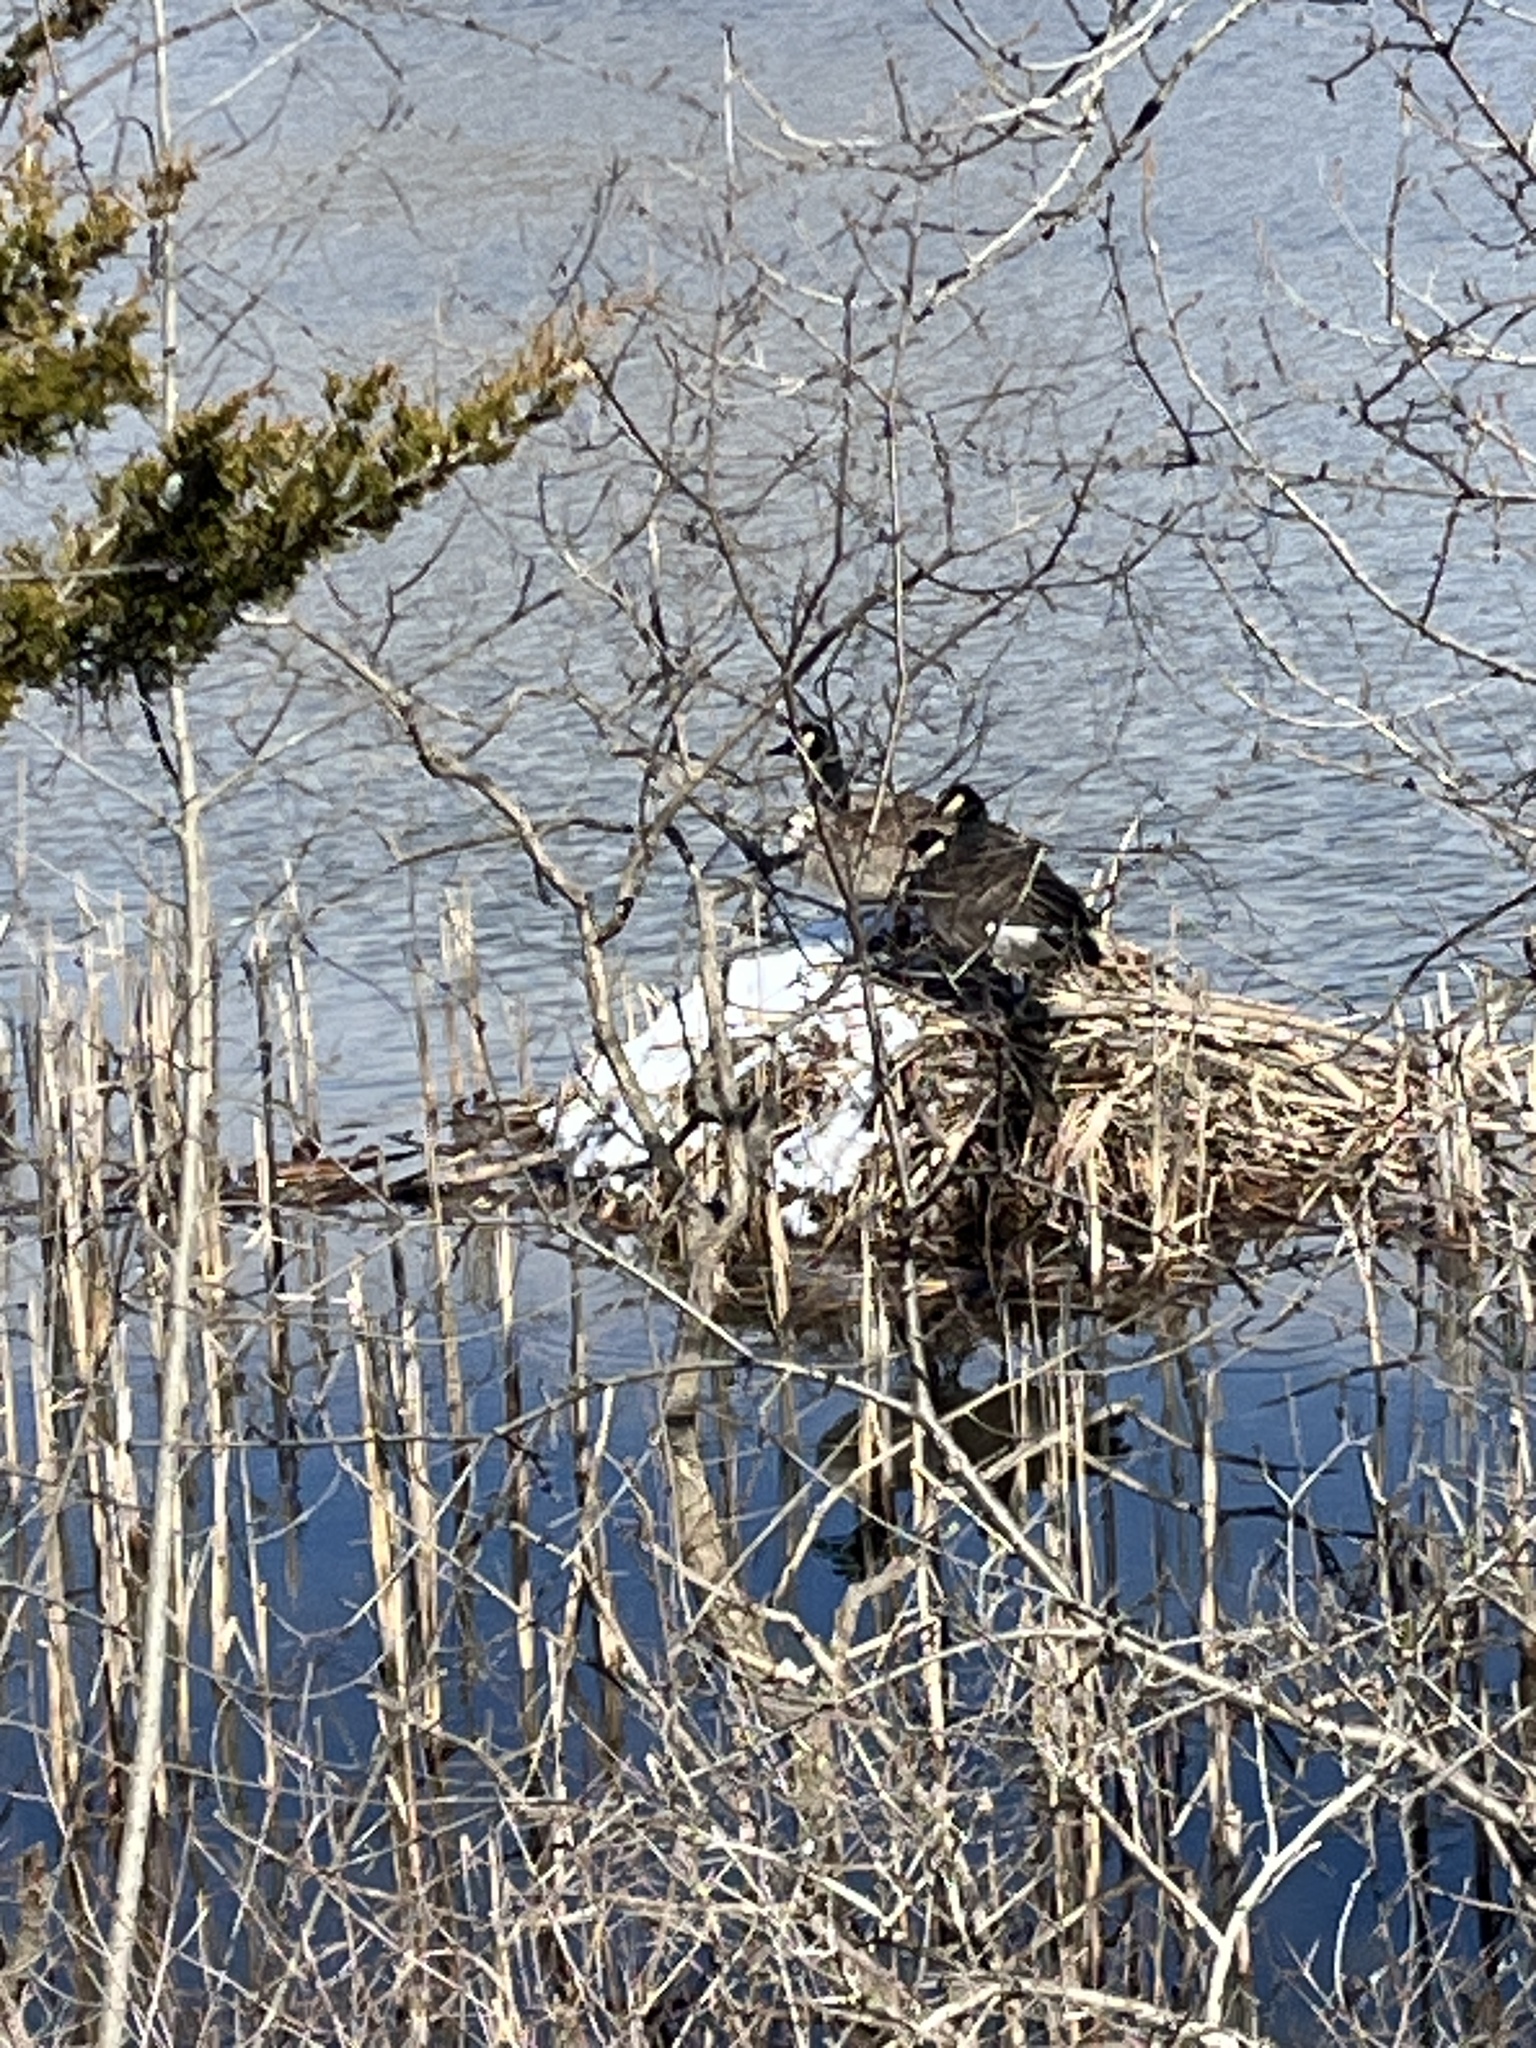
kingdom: Animalia
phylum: Chordata
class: Aves
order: Anseriformes
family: Anatidae
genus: Branta
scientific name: Branta canadensis
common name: Canada goose
